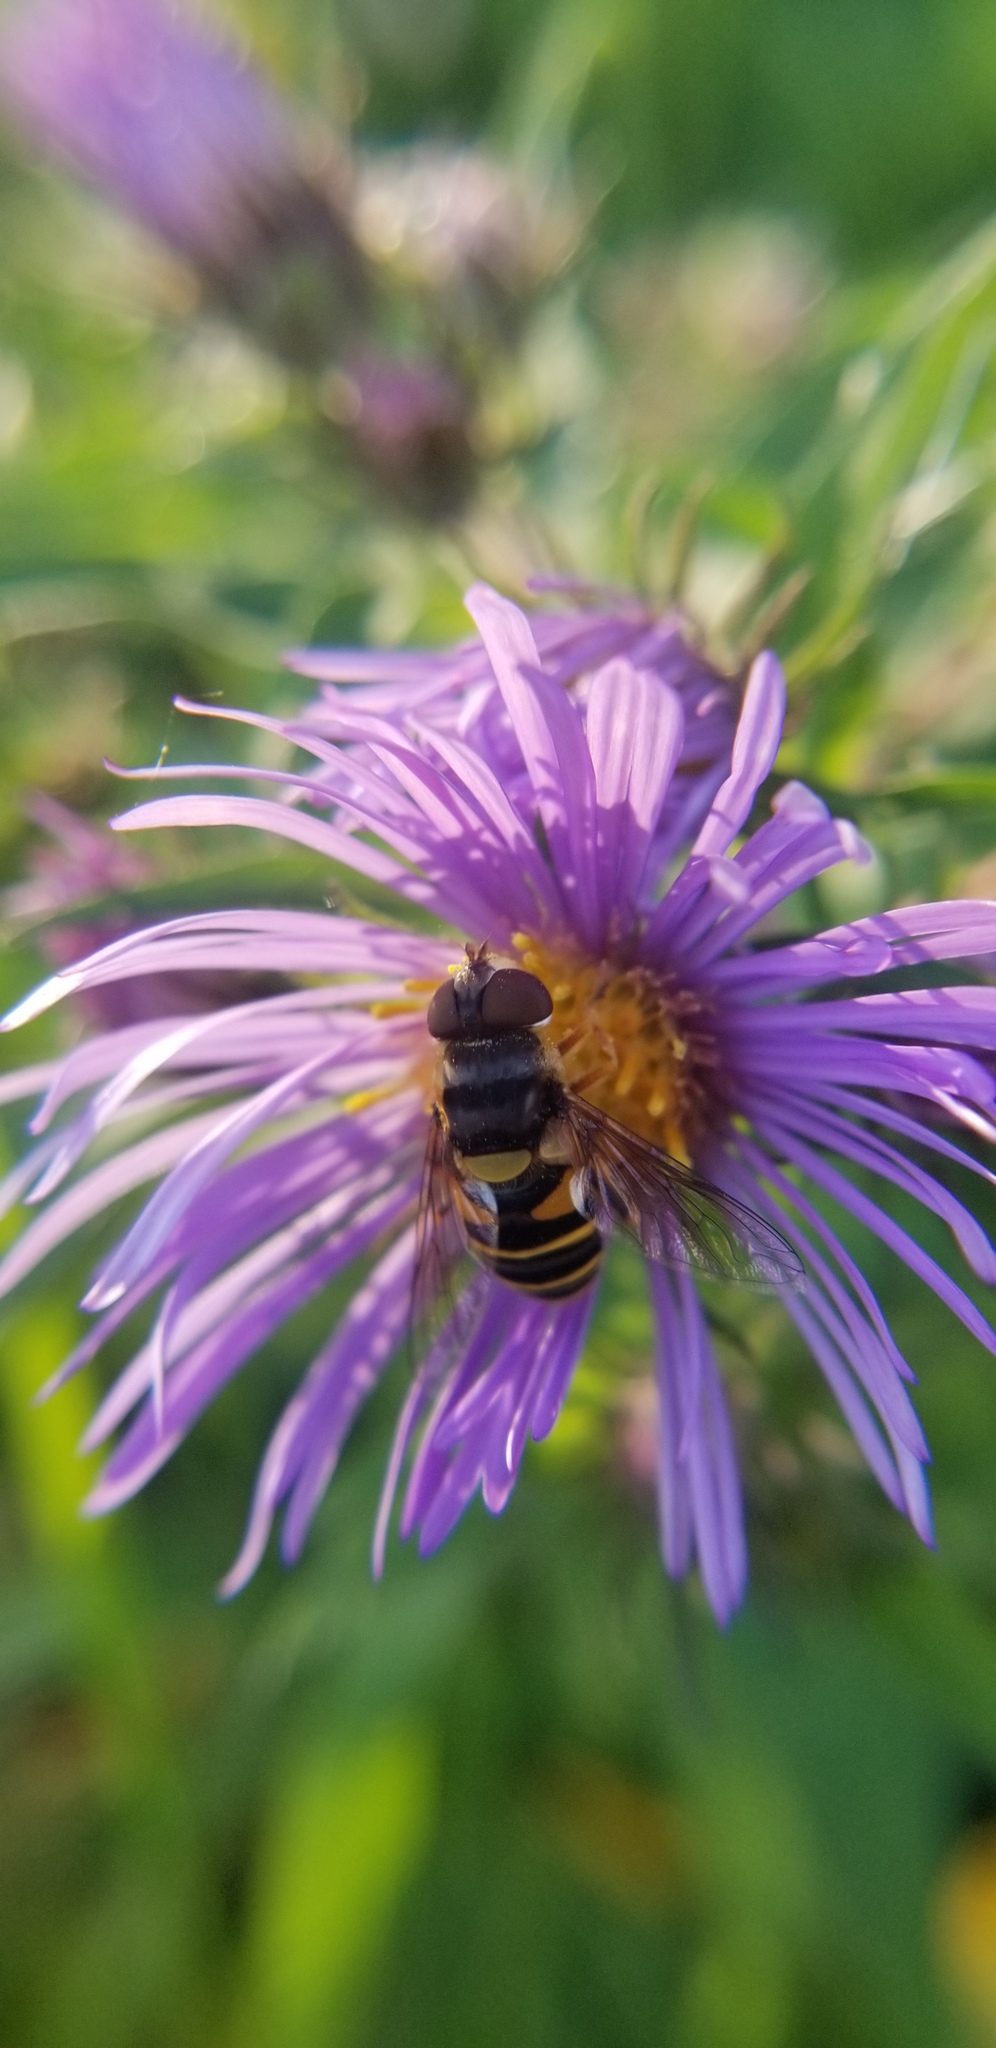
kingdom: Animalia
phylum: Arthropoda
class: Insecta
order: Diptera
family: Syrphidae
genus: Eristalis
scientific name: Eristalis transversa
